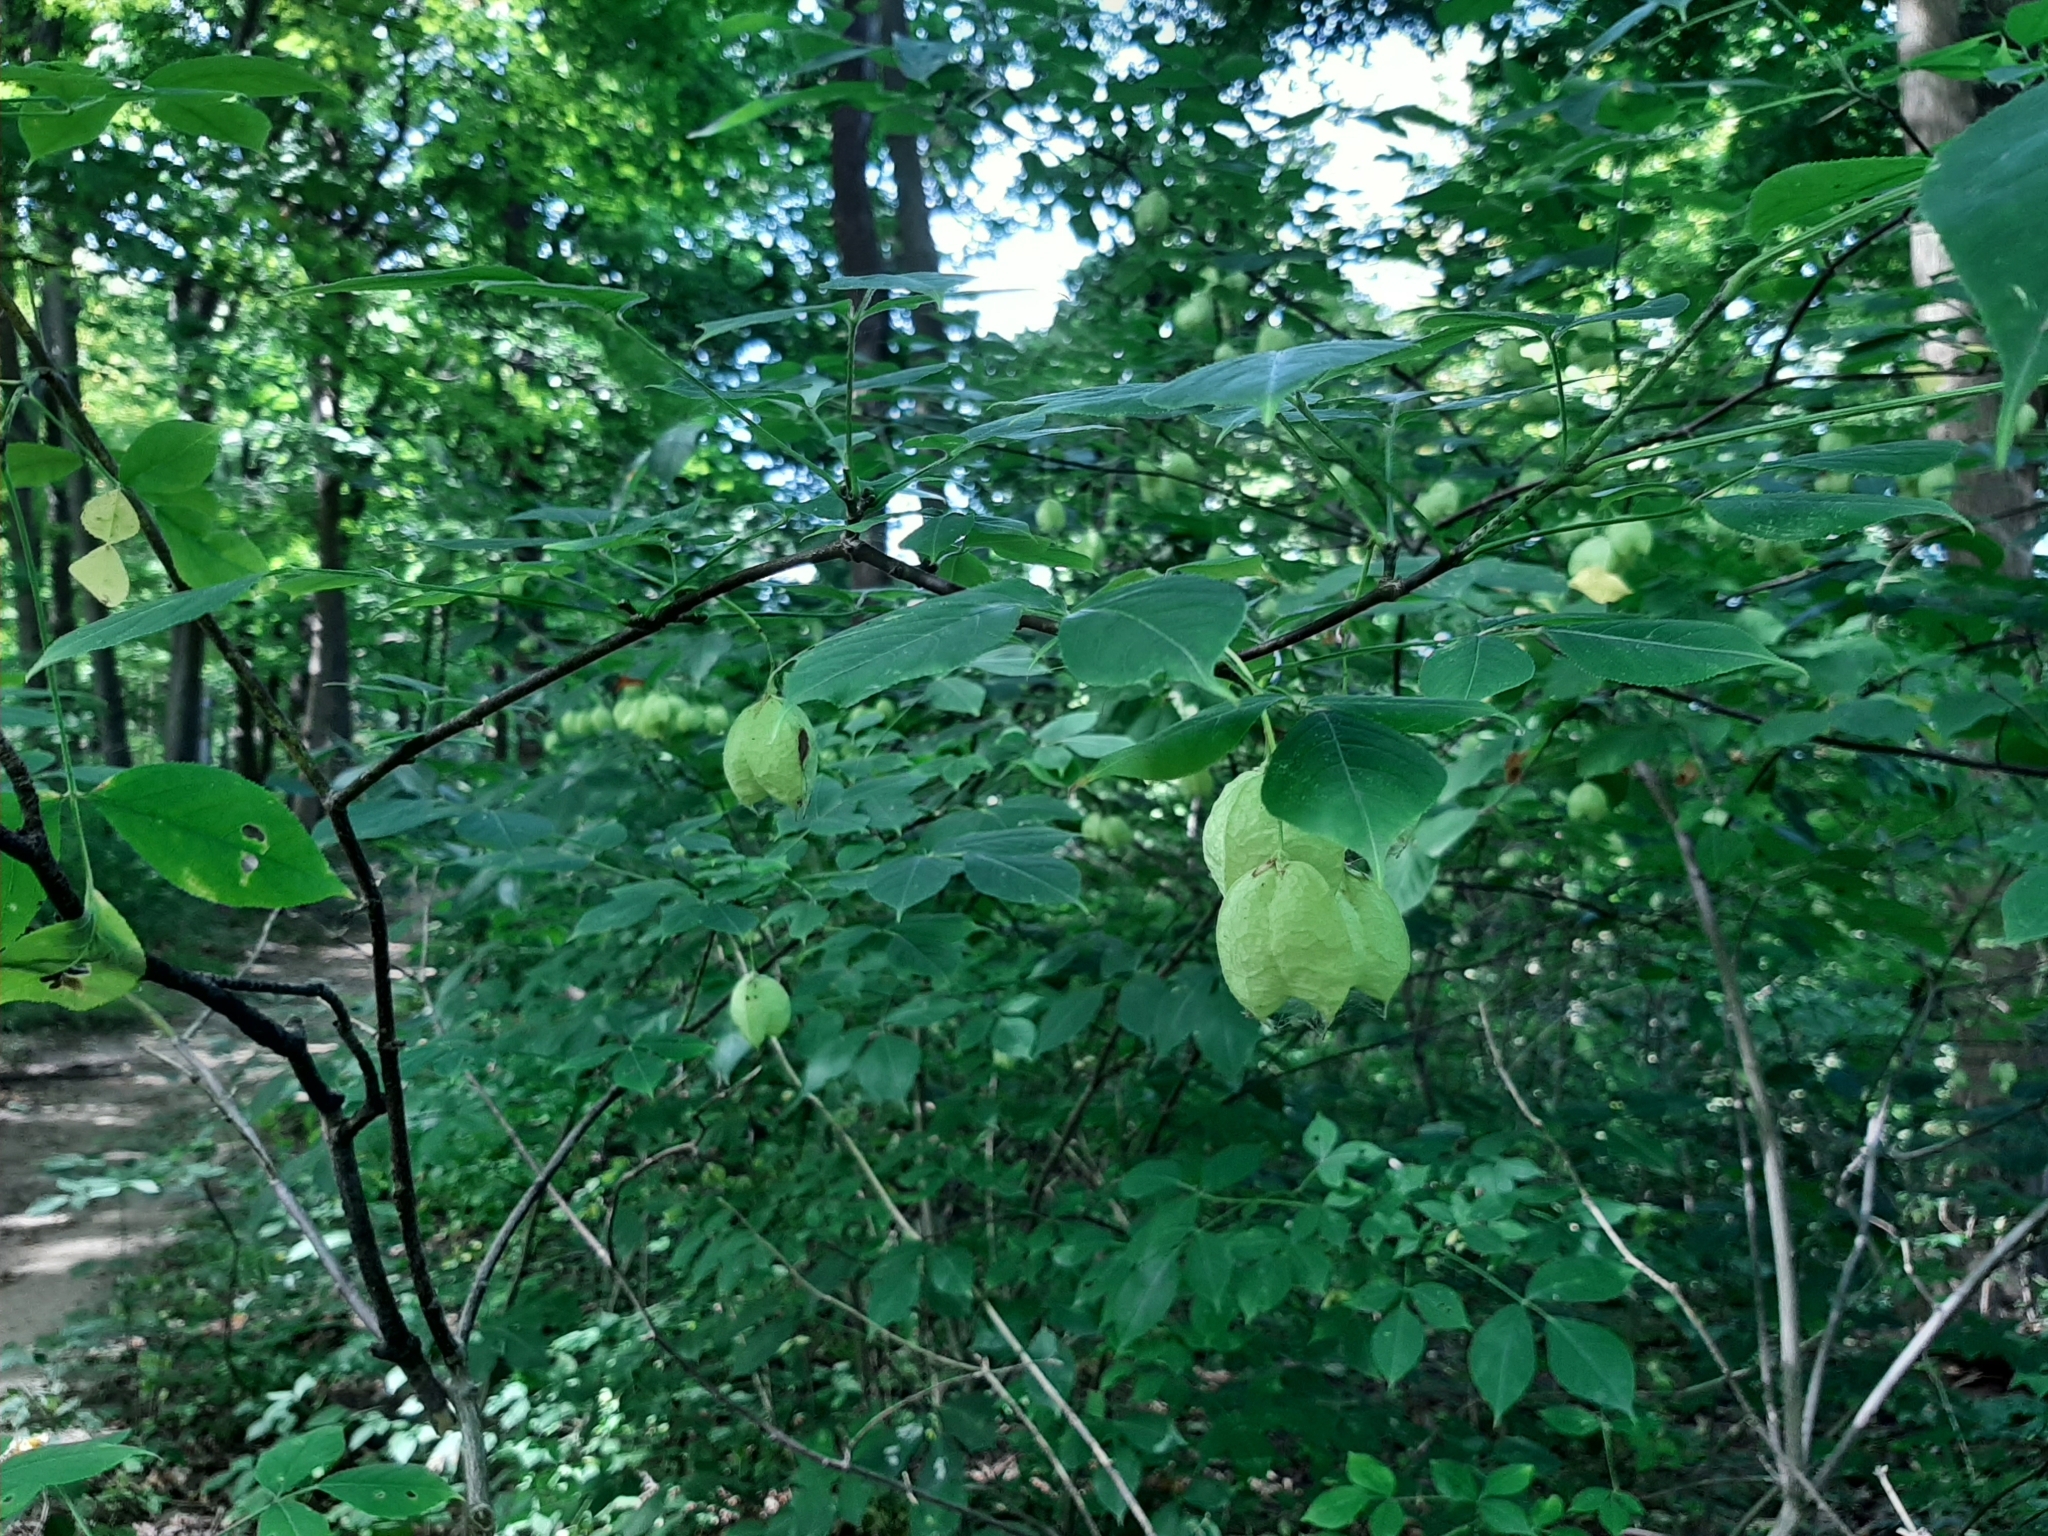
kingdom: Plantae
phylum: Tracheophyta
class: Magnoliopsida
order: Crossosomatales
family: Staphyleaceae
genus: Staphylea
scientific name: Staphylea trifolia
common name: American bladdernut
